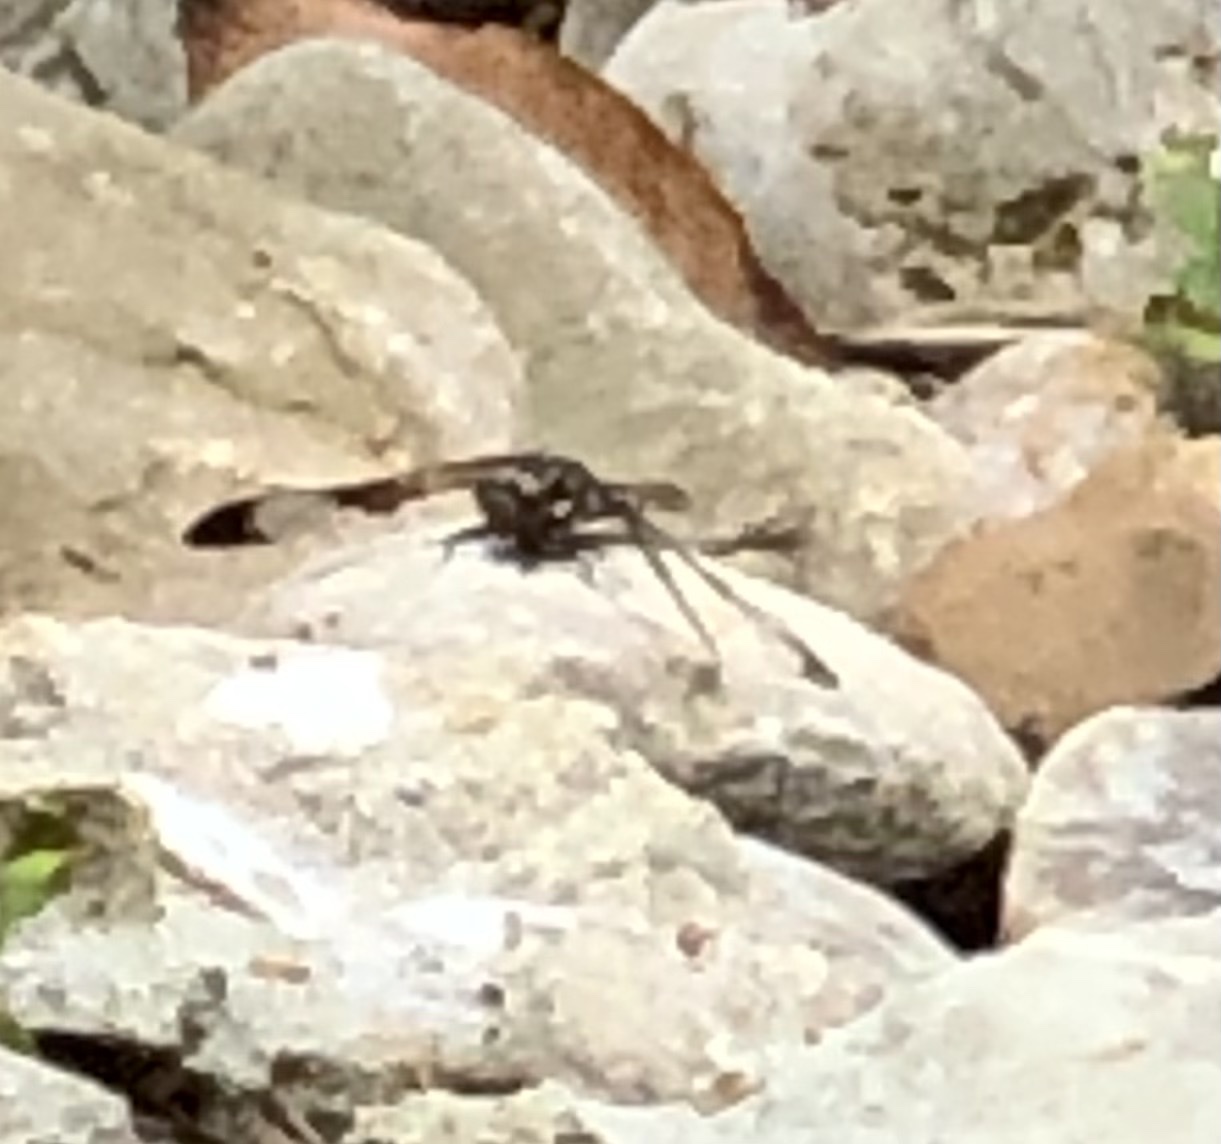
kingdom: Animalia
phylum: Arthropoda
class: Insecta
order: Odonata
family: Libellulidae
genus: Plathemis
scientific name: Plathemis lydia
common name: Common whitetail
